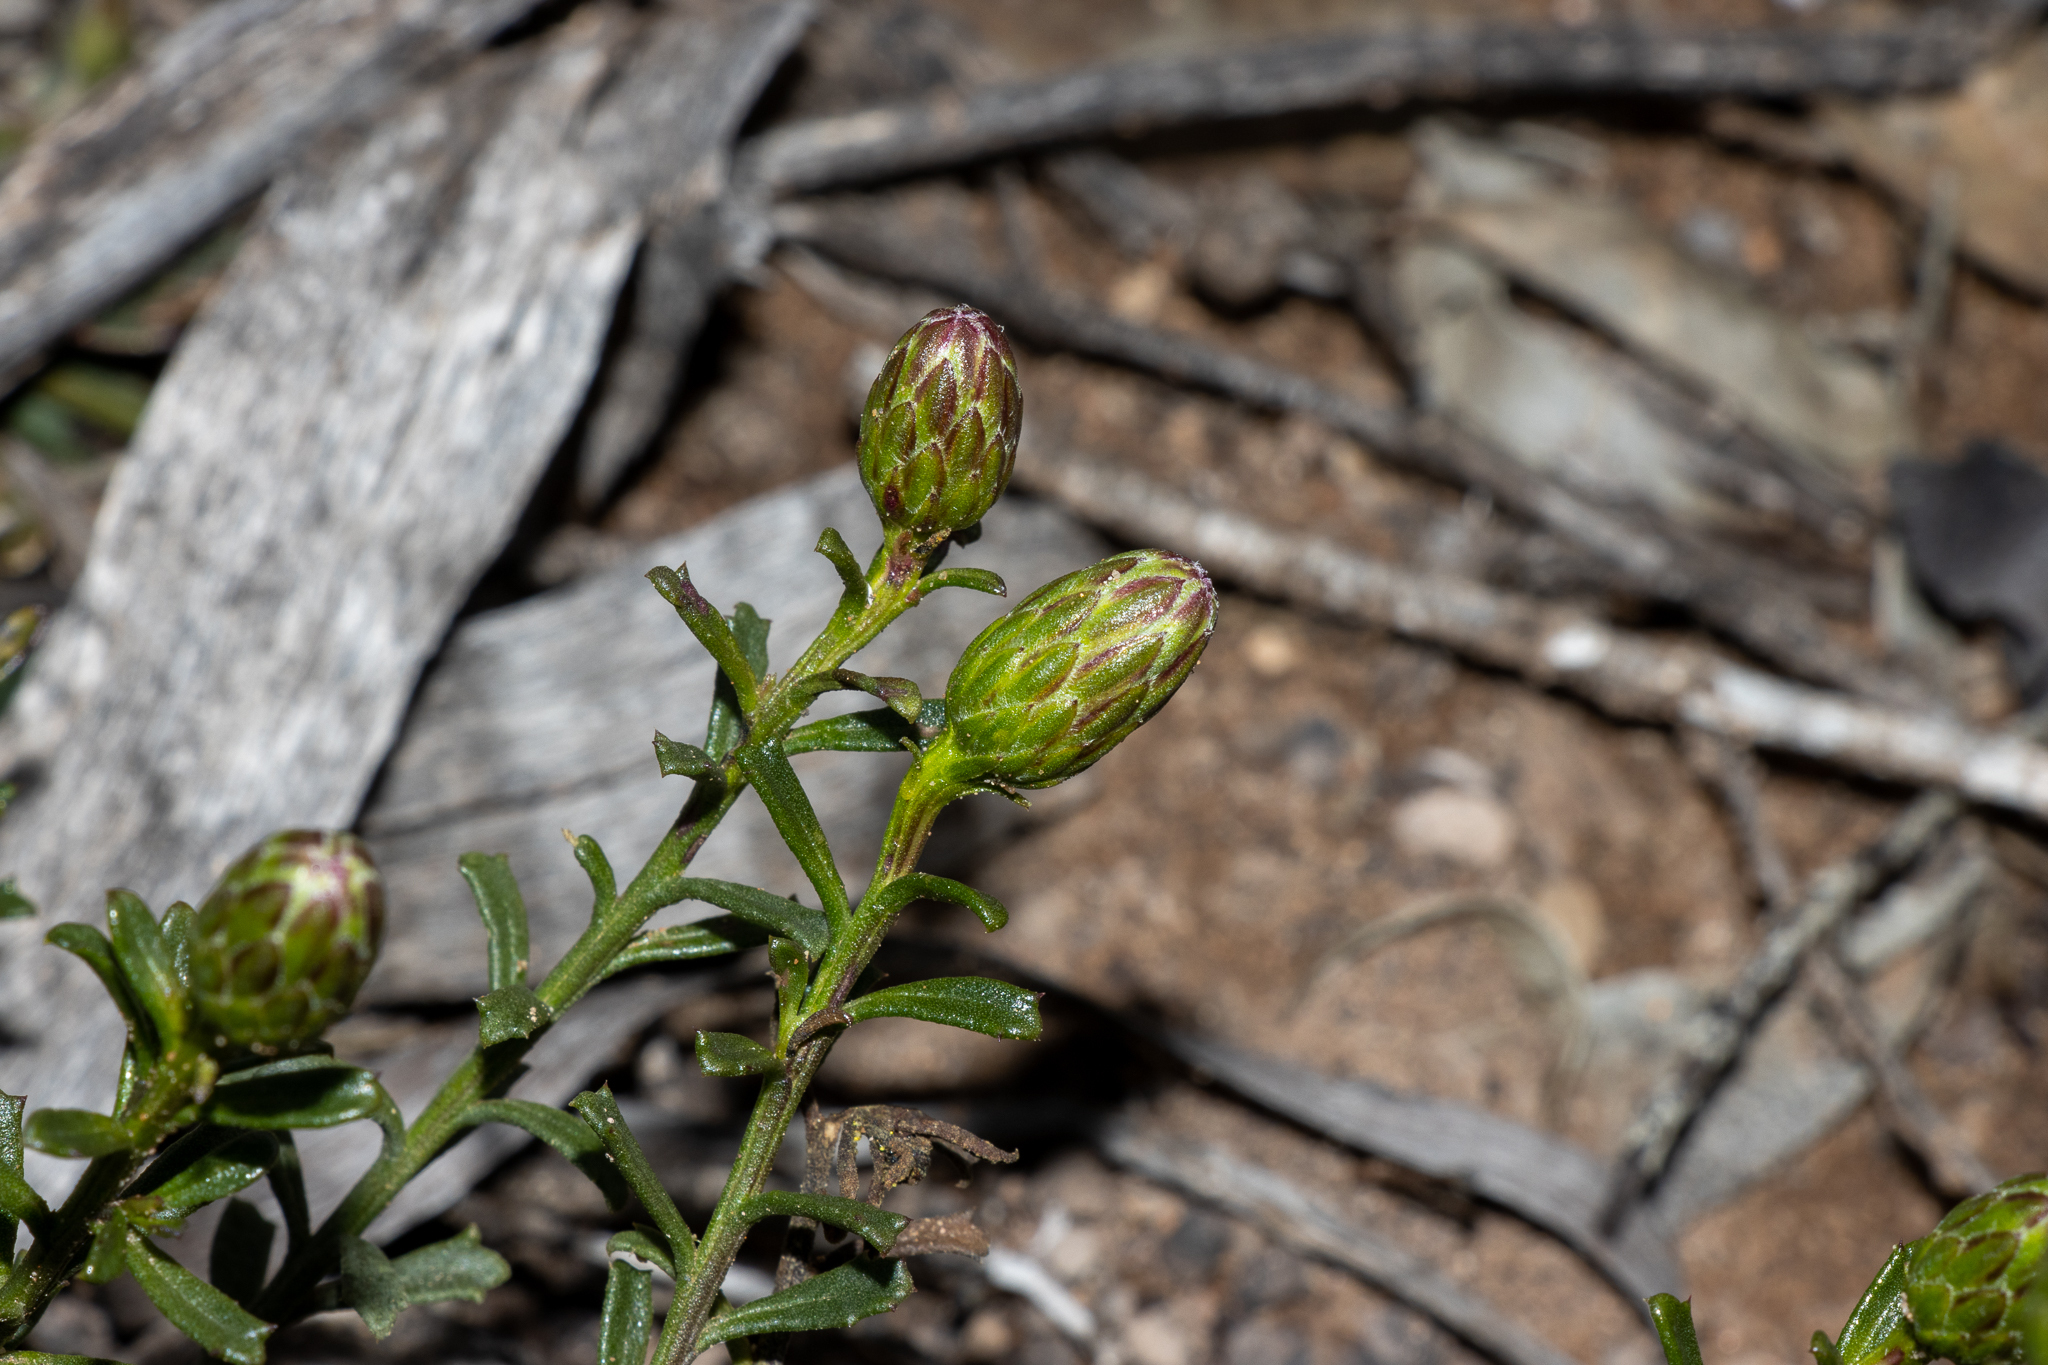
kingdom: Plantae
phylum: Tracheophyta
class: Magnoliopsida
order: Asterales
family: Asteraceae
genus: Walsholaria
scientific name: Walsholaria magniflora
